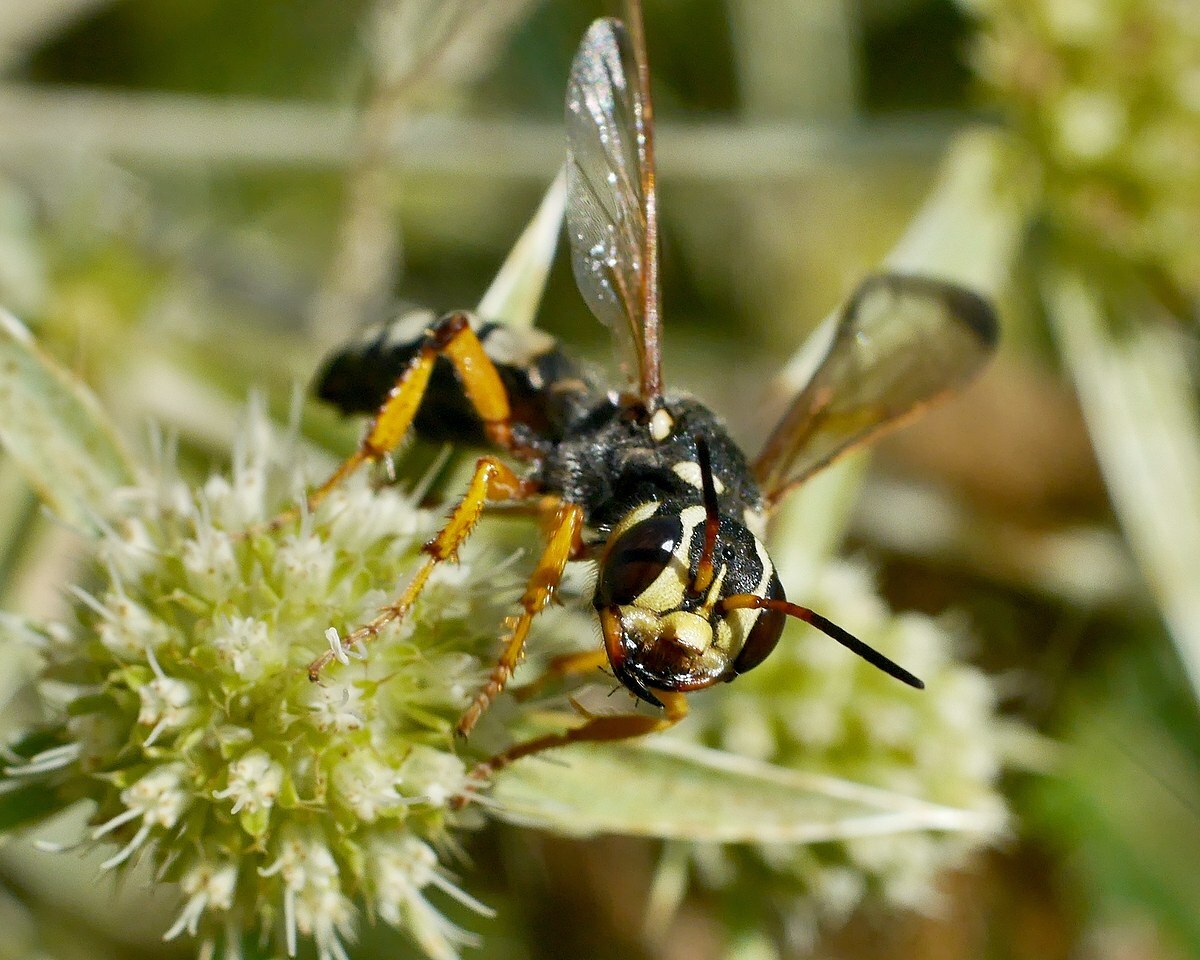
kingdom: Animalia
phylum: Arthropoda
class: Insecta
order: Hymenoptera
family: Crabronidae
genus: Cerceris
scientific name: Cerceris tuberculata
